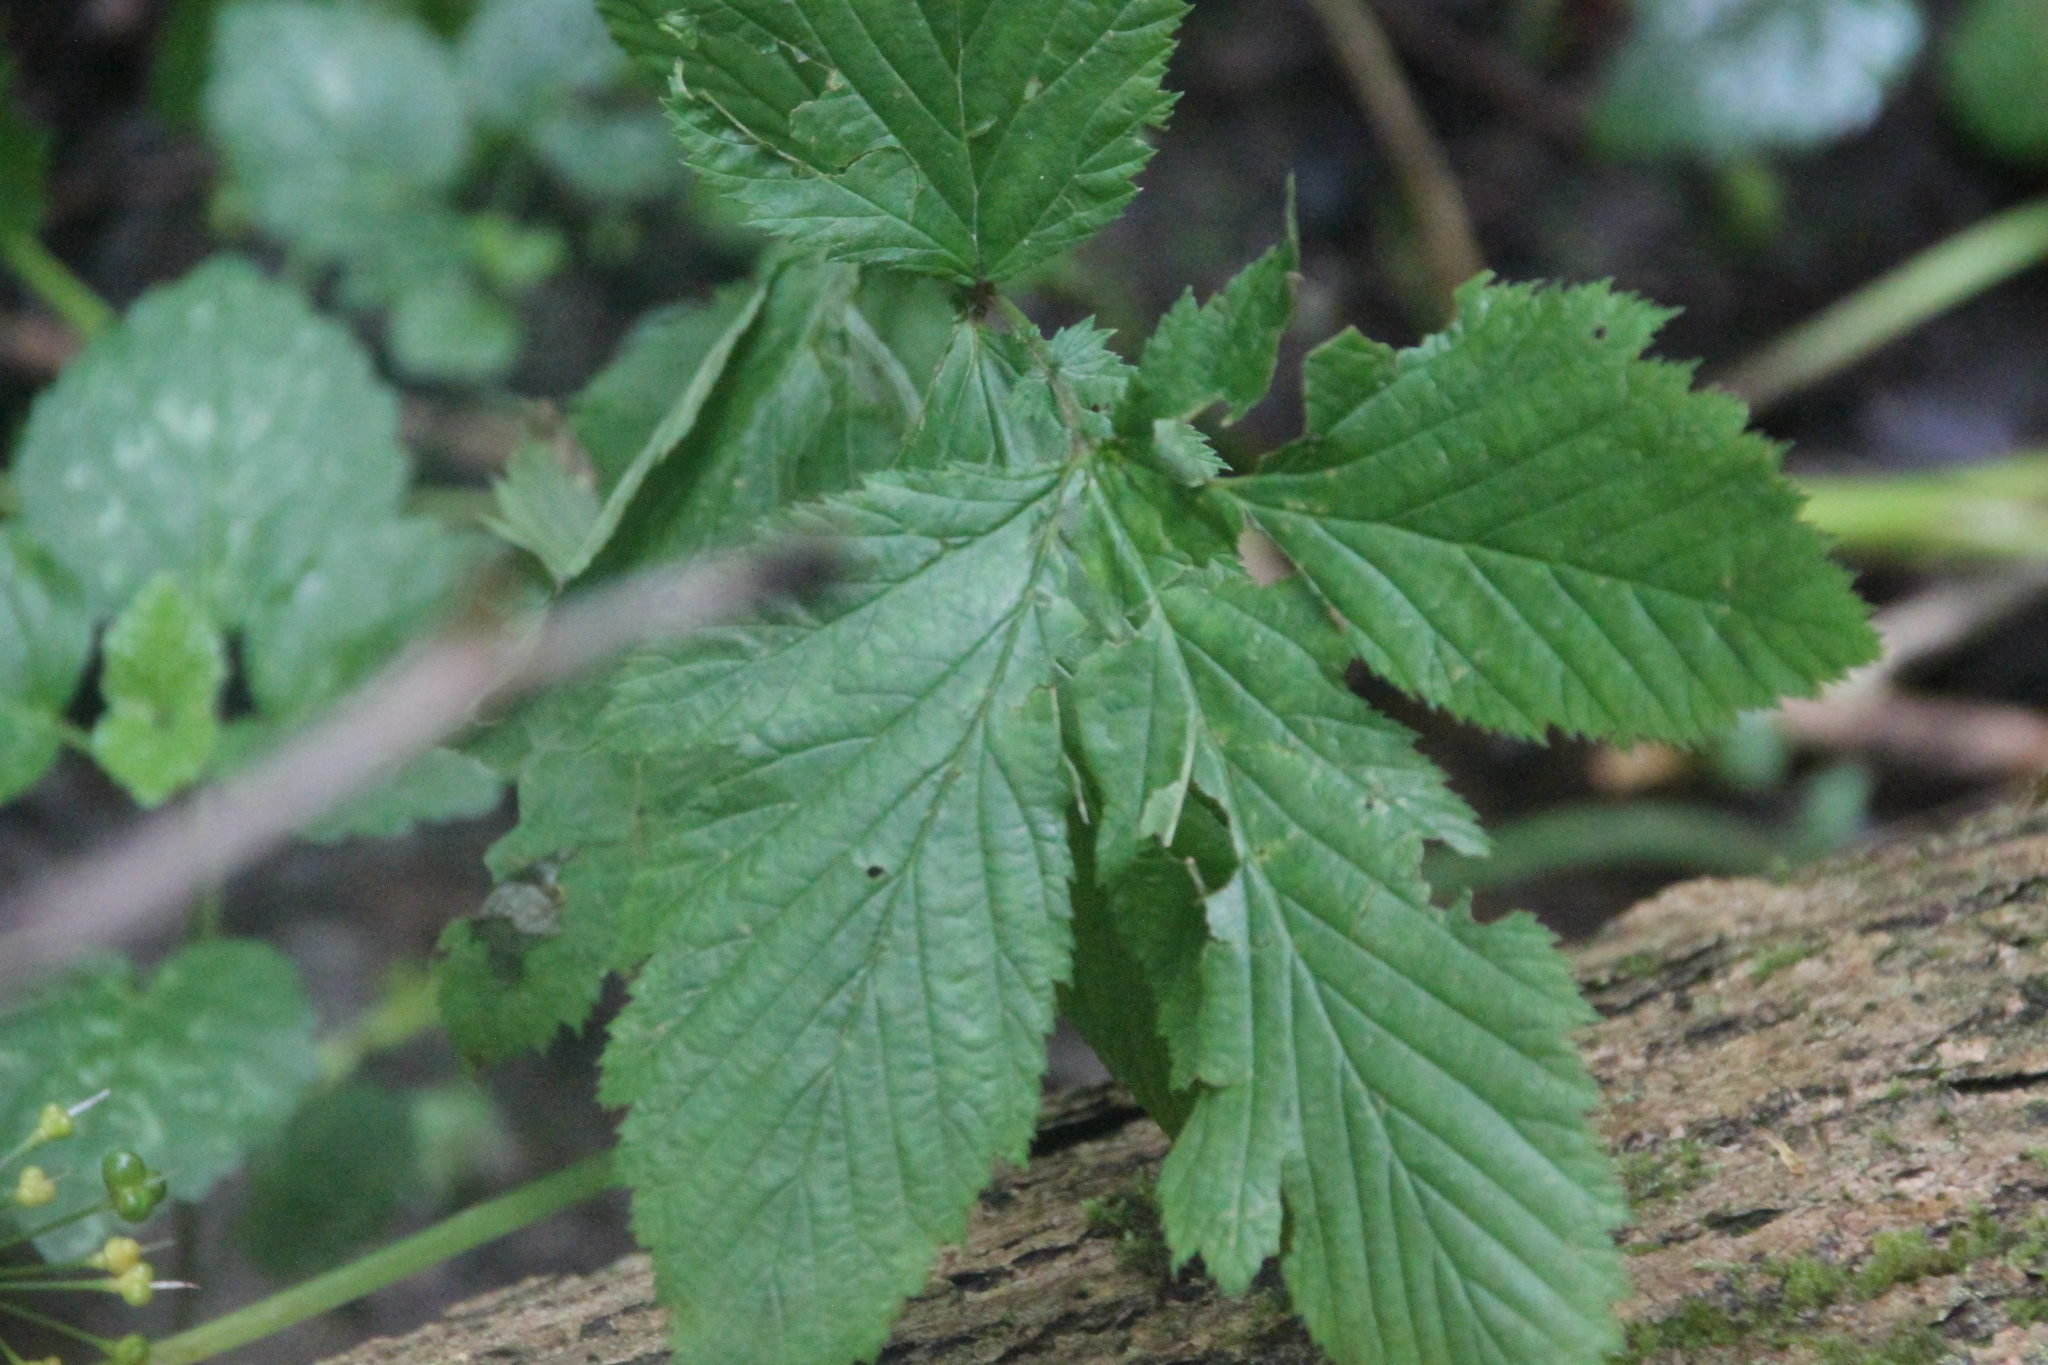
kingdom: Plantae
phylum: Tracheophyta
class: Magnoliopsida
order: Rosales
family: Rosaceae
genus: Filipendula
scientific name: Filipendula ulmaria
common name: Meadowsweet
